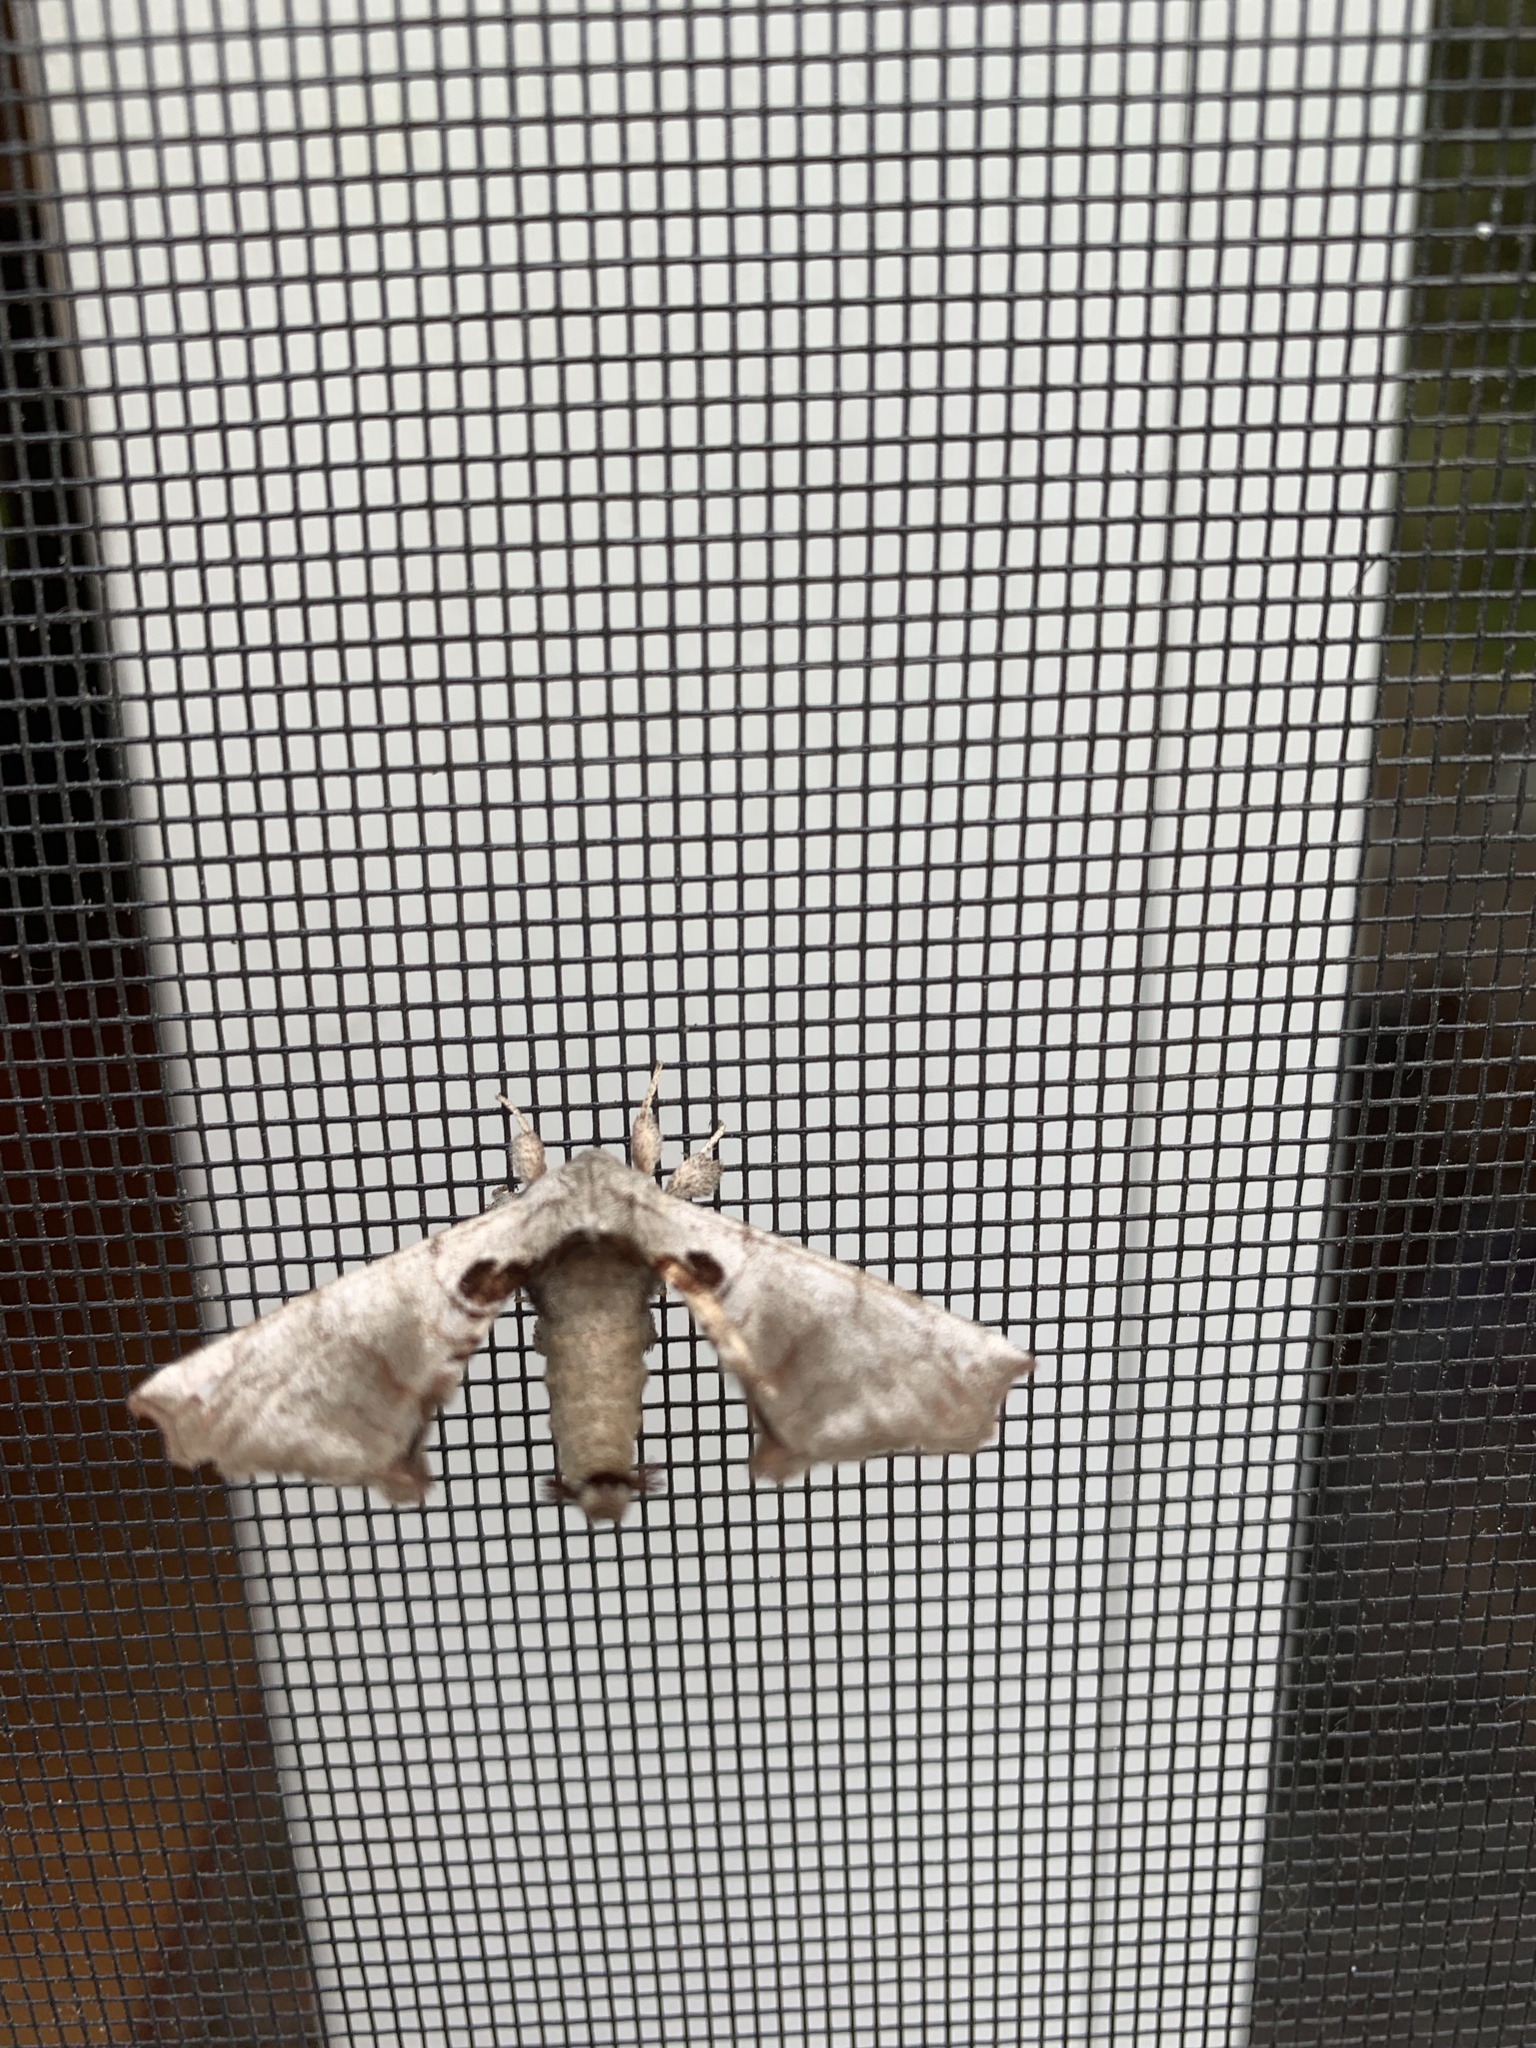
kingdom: Animalia
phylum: Arthropoda
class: Insecta
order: Lepidoptera
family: Apatelodidae
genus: Hygrochroa
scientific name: Hygrochroa Apatelodes torrefacta
